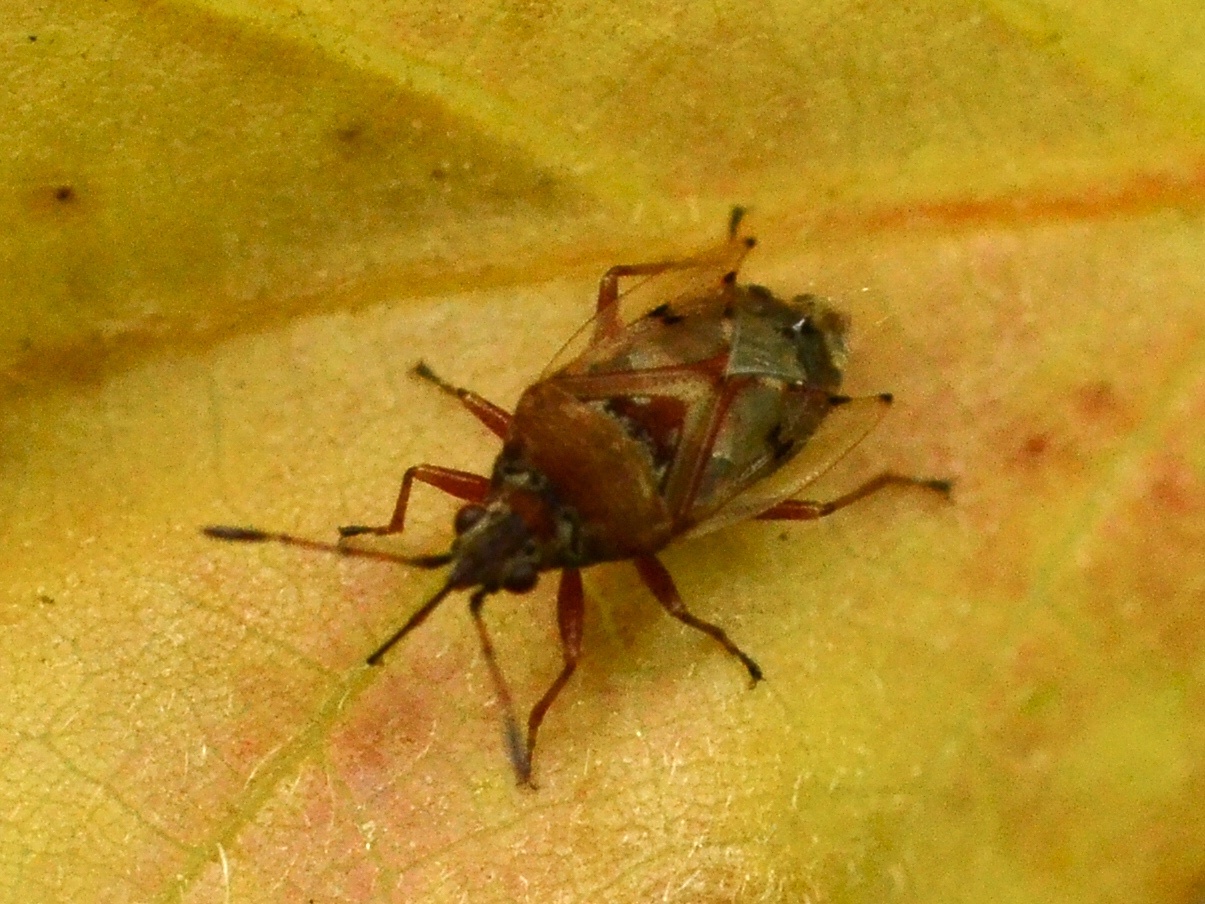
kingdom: Animalia
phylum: Arthropoda
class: Insecta
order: Hemiptera
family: Lygaeidae
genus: Kleidocerys
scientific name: Kleidocerys resedae
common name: Birch catkin bug
